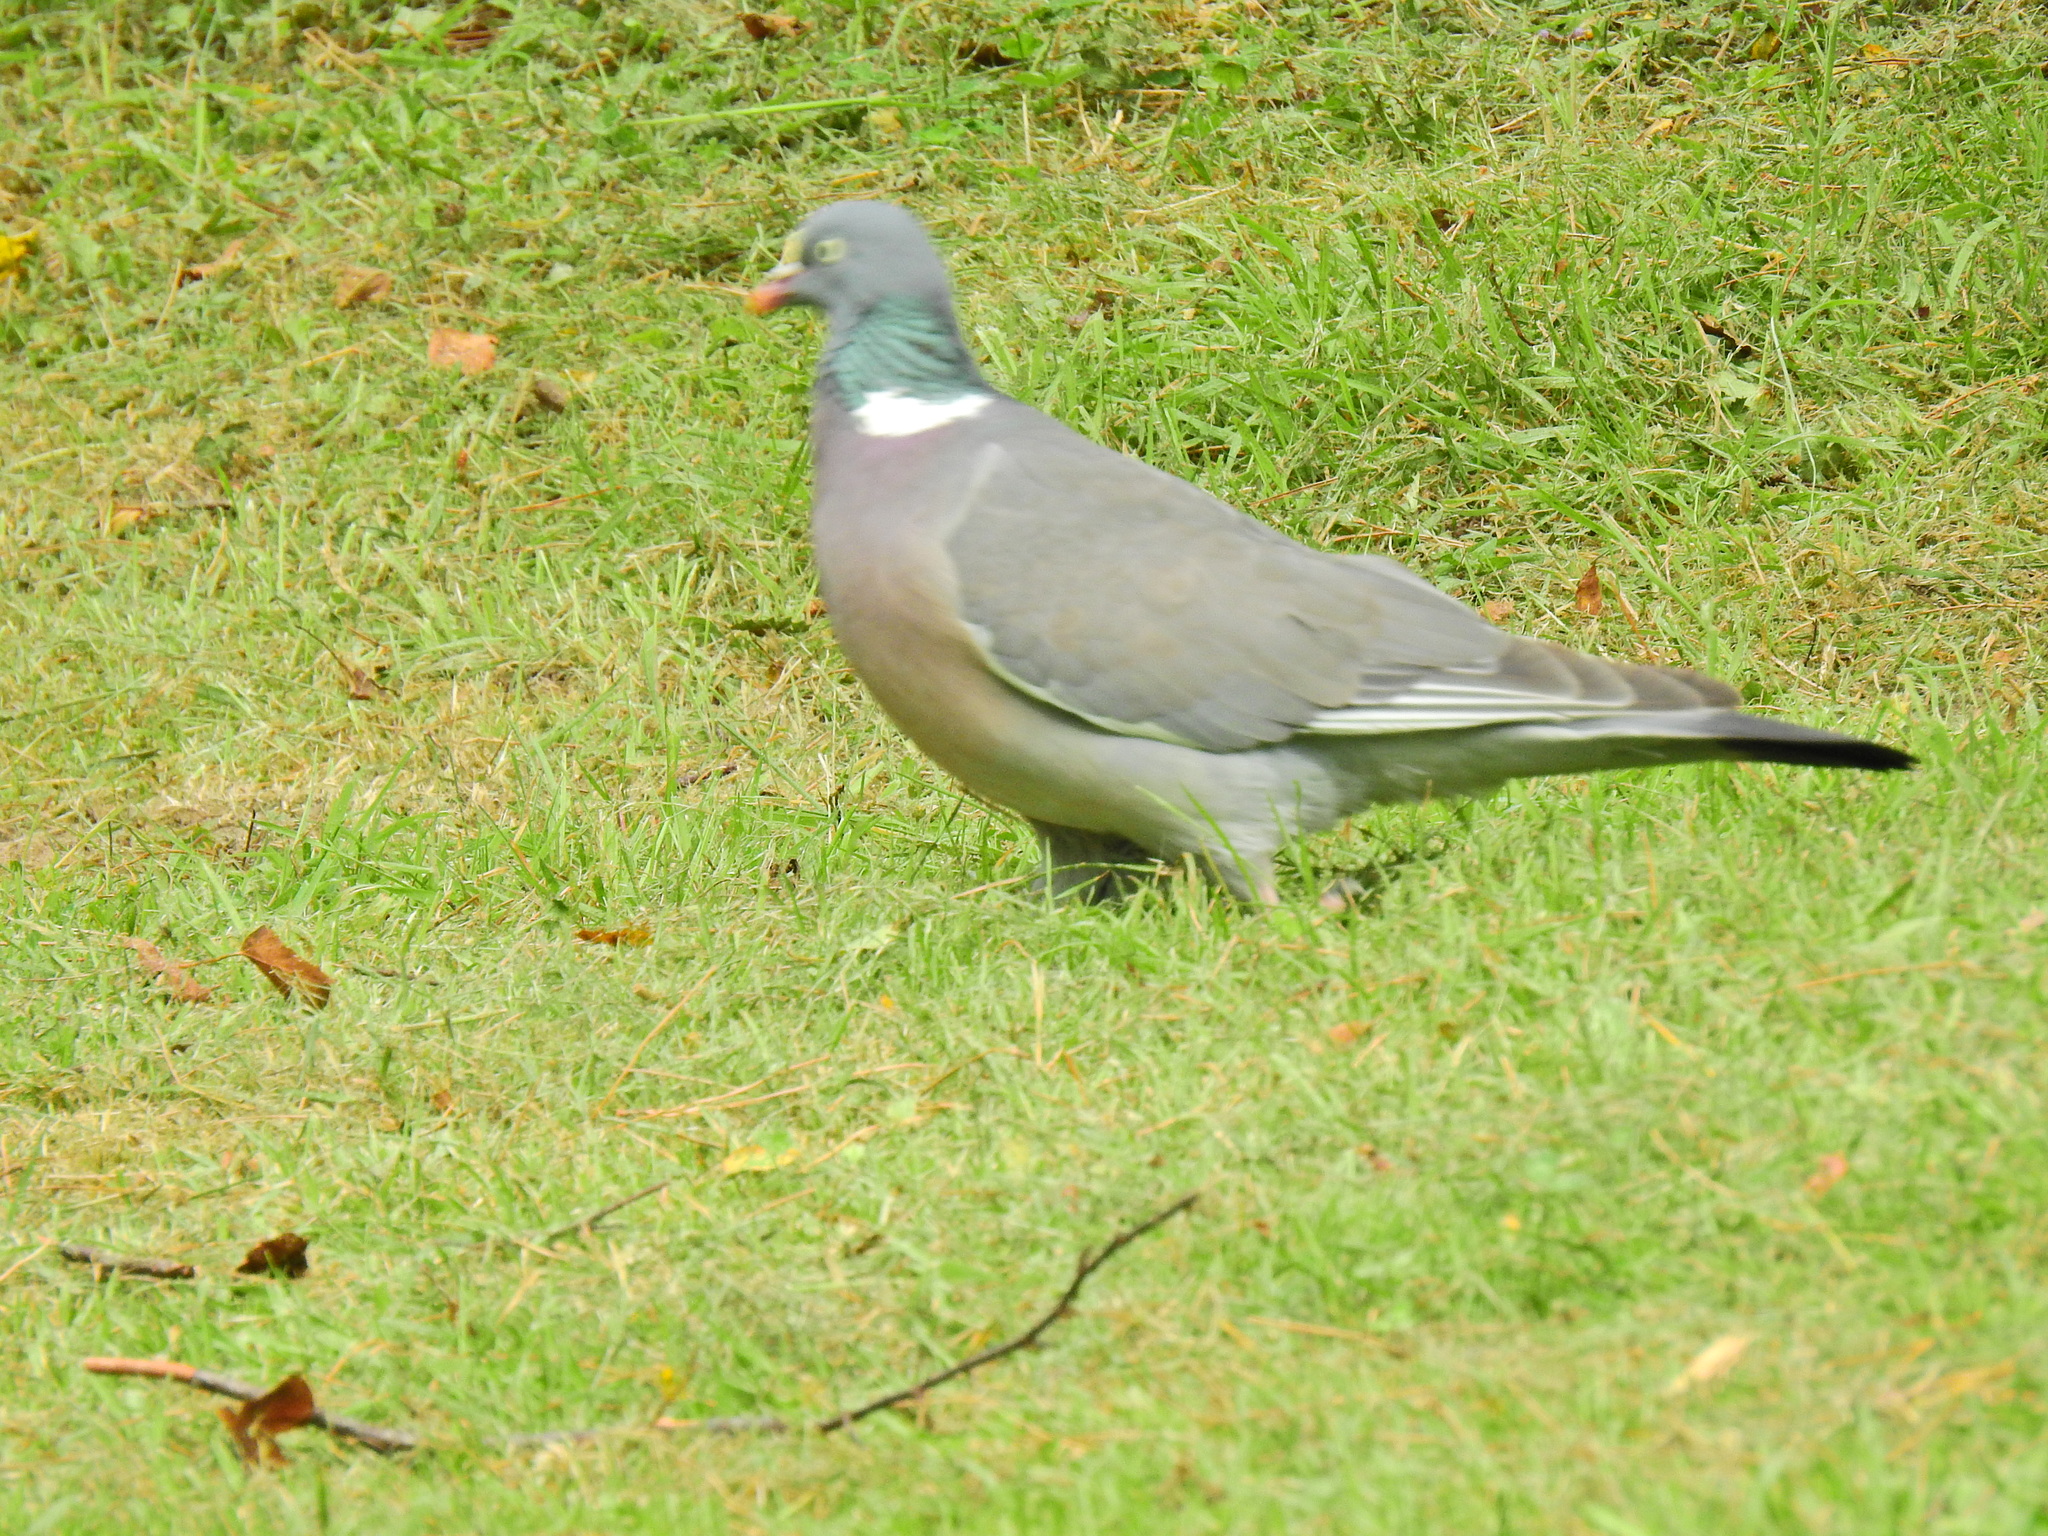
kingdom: Animalia
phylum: Chordata
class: Aves
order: Columbiformes
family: Columbidae
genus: Columba
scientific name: Columba palumbus
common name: Common wood pigeon
